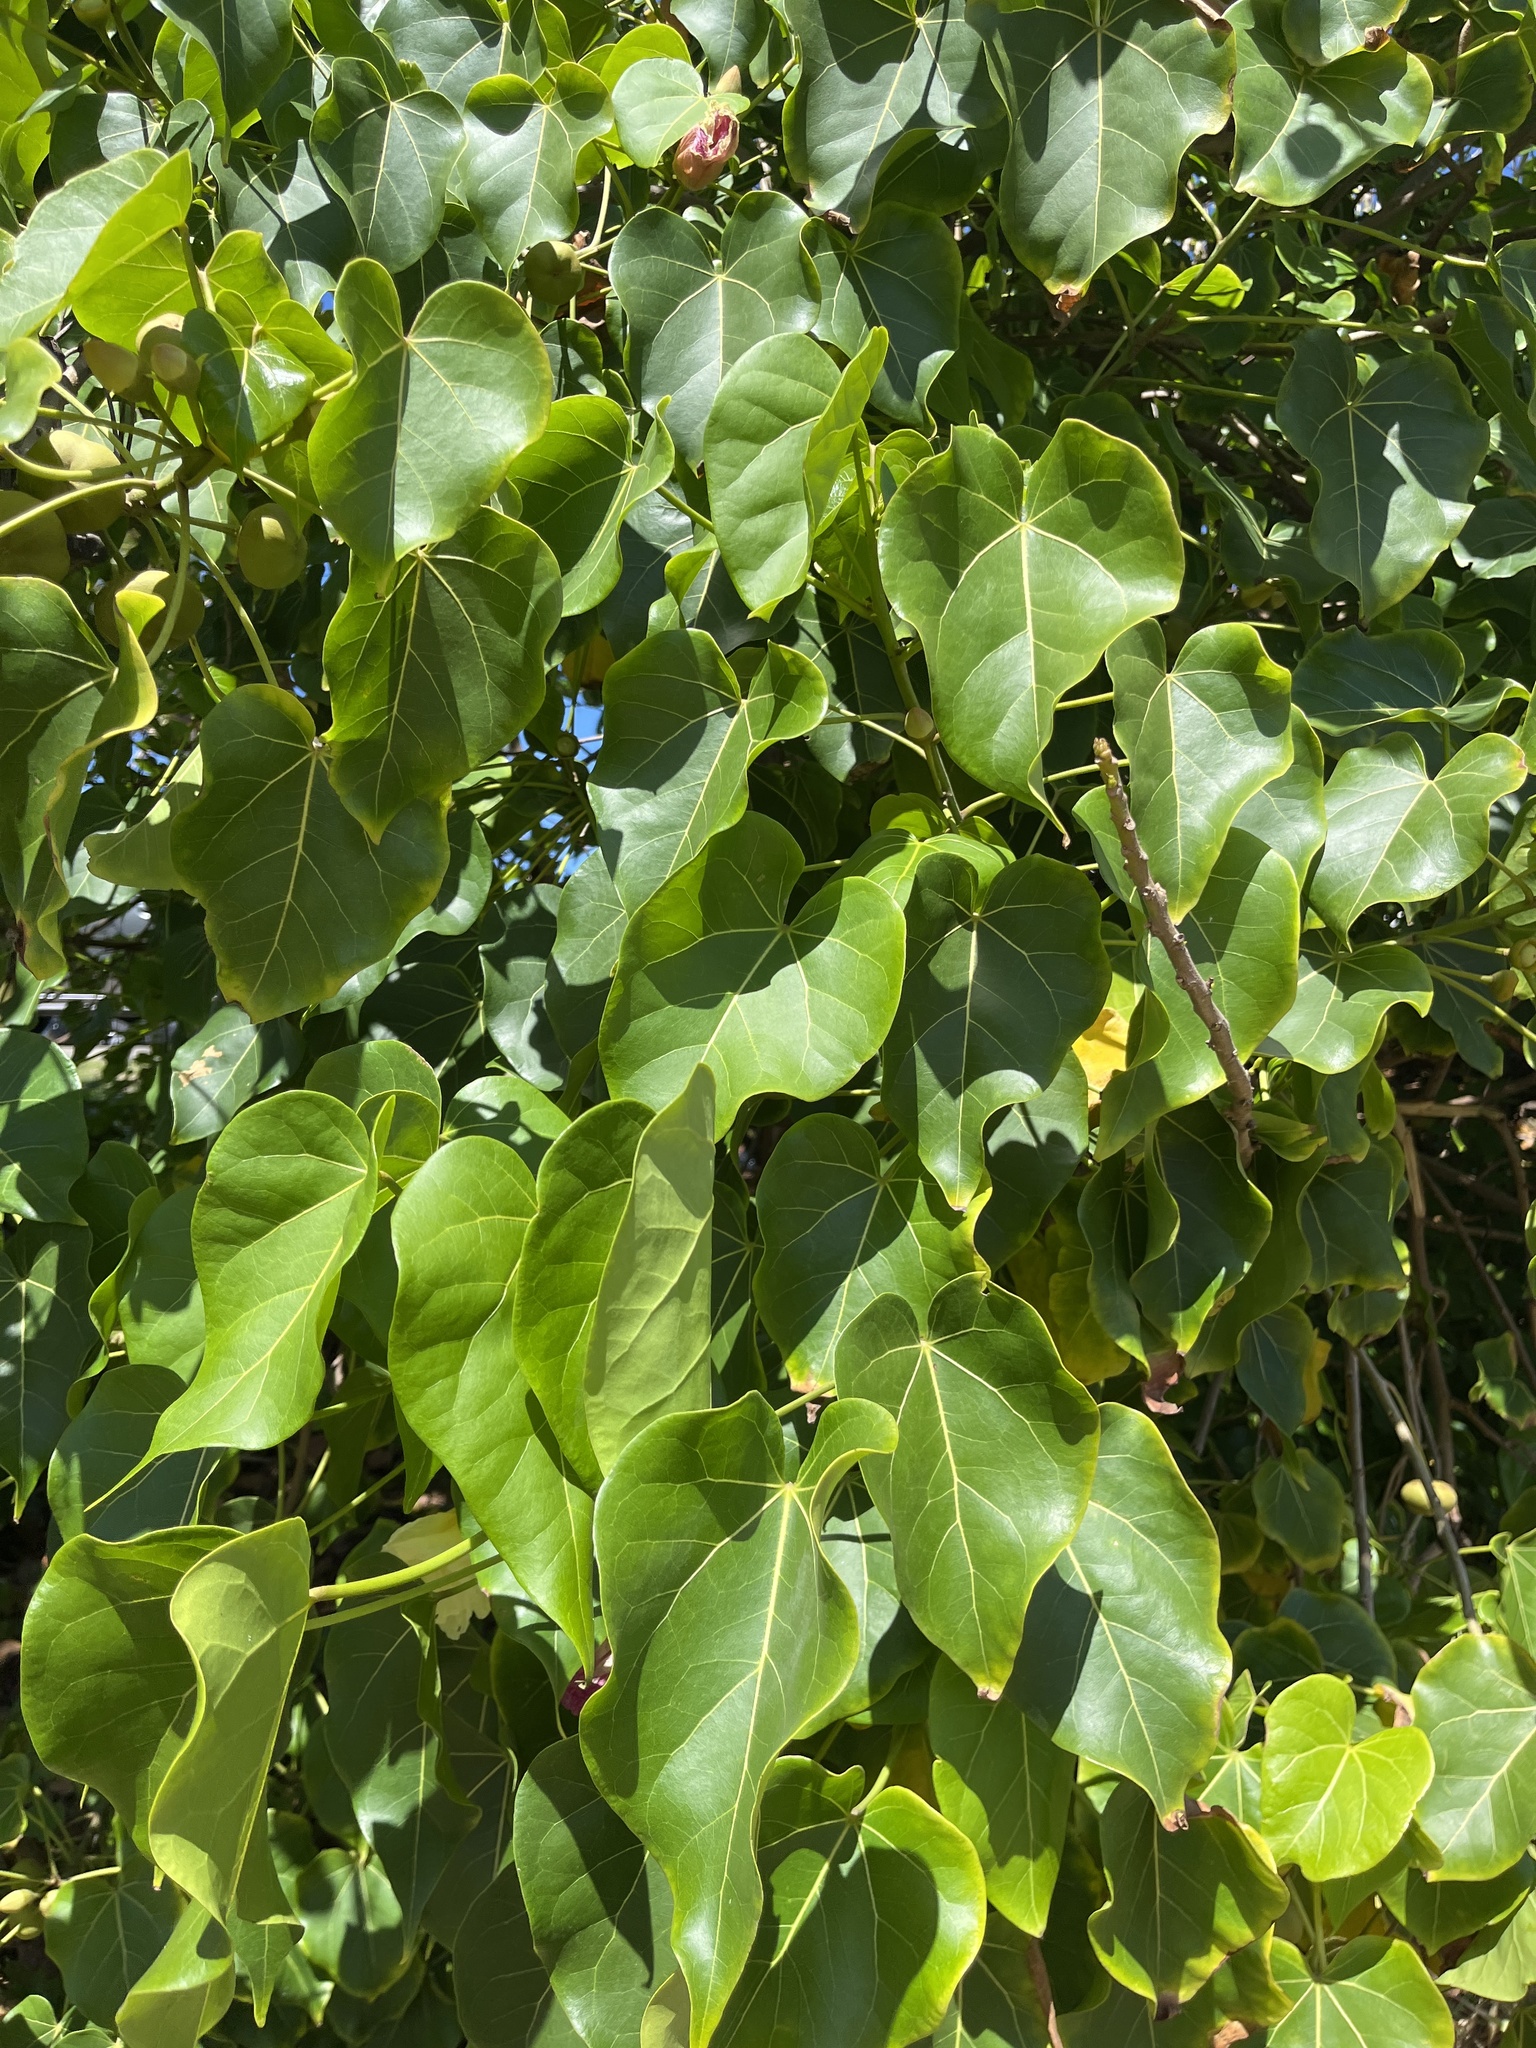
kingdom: Plantae
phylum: Tracheophyta
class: Magnoliopsida
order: Malvales
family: Malvaceae
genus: Thespesia
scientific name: Thespesia populnea
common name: Seaside mahoe
